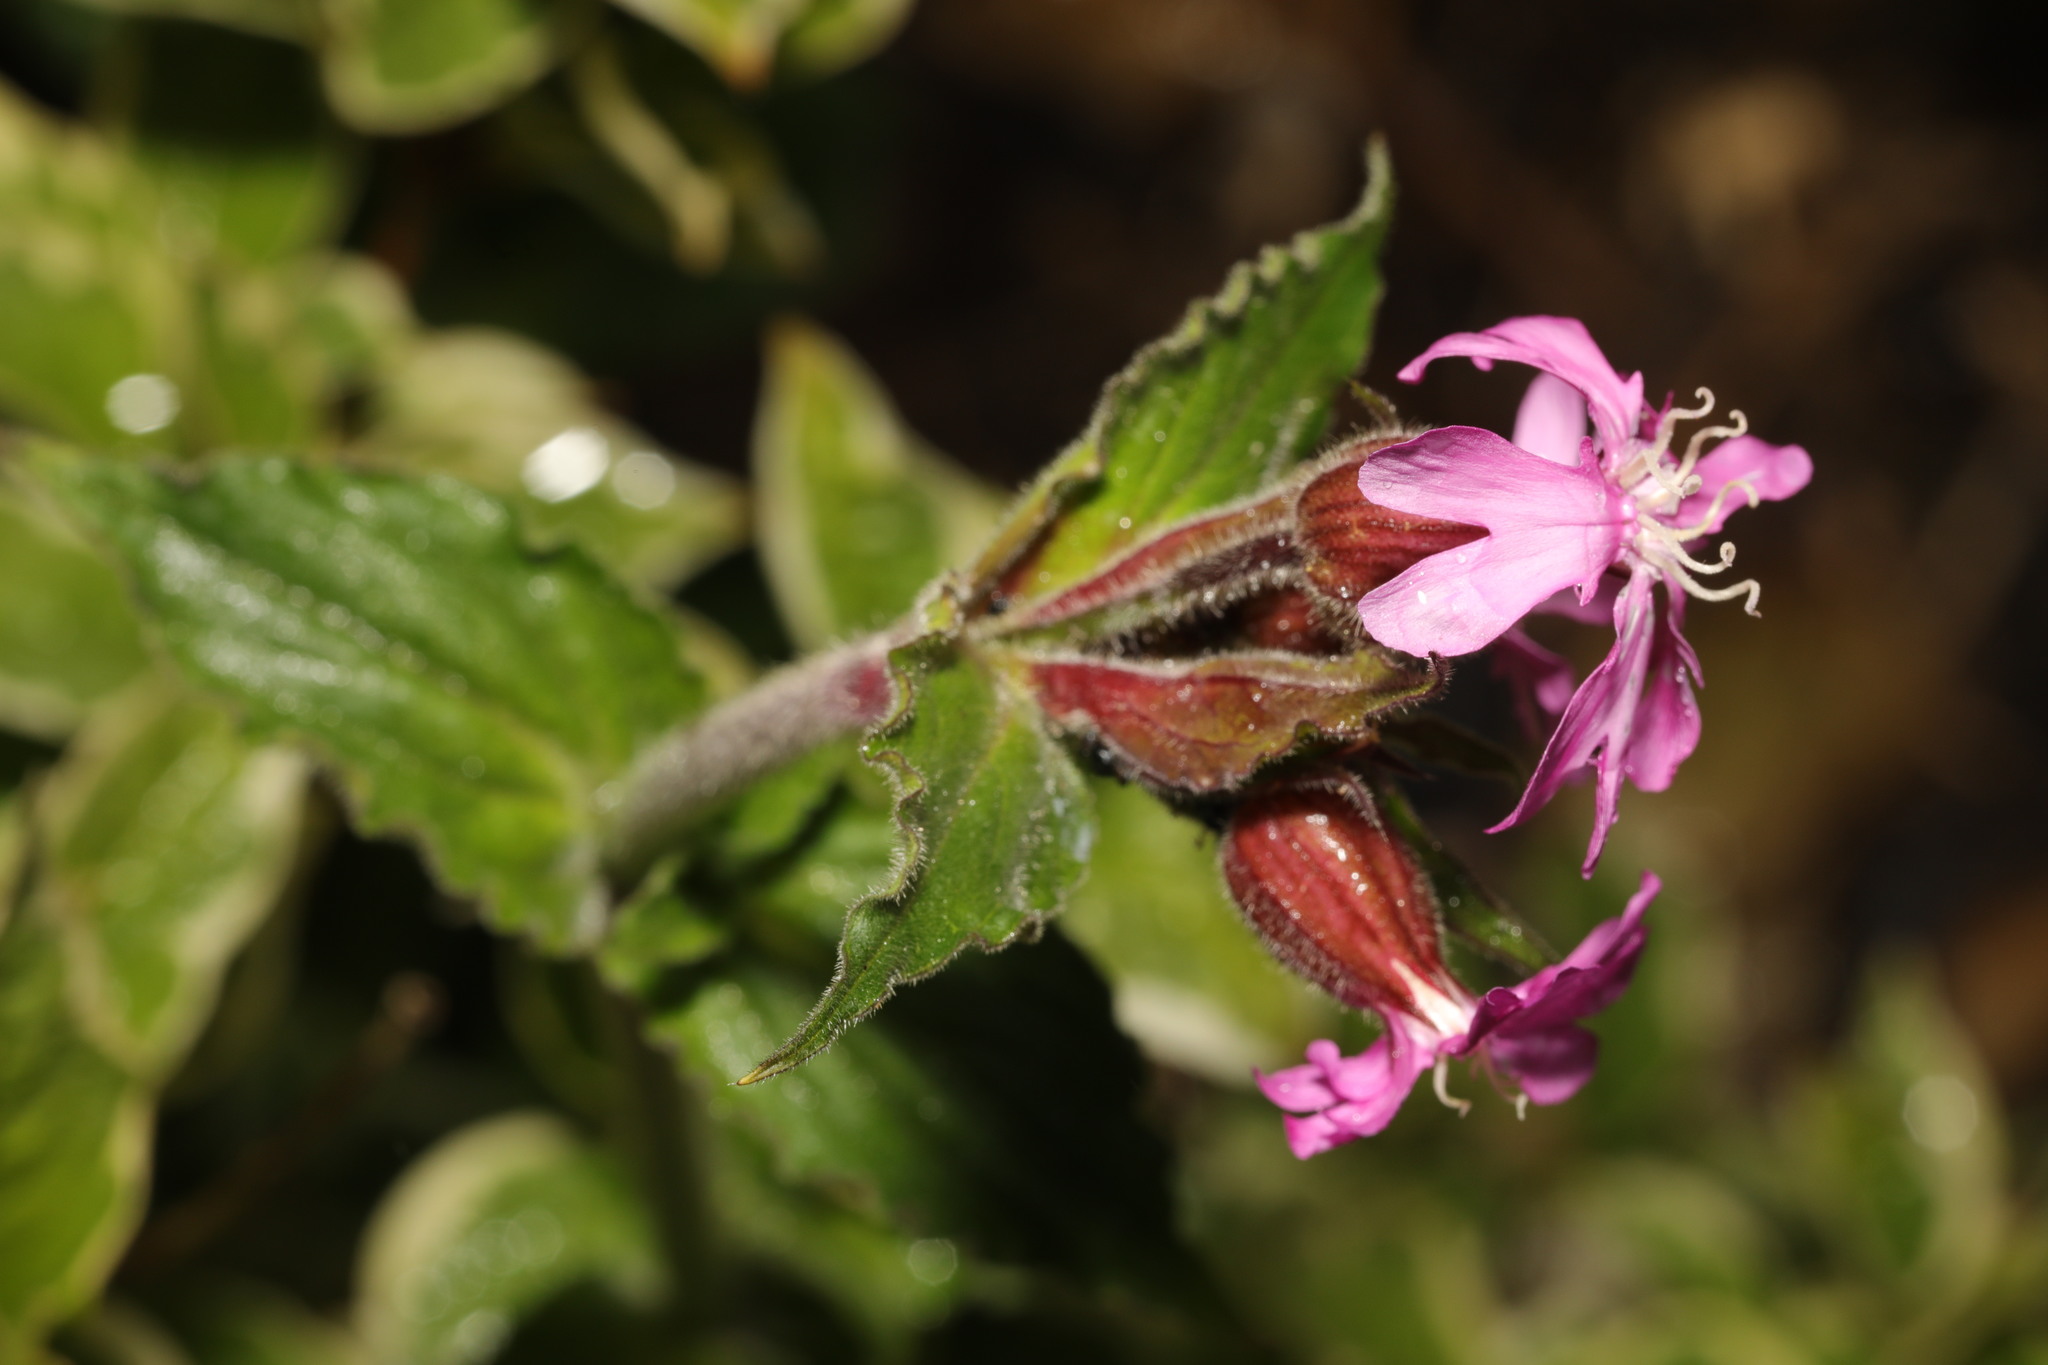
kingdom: Plantae
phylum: Tracheophyta
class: Magnoliopsida
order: Caryophyllales
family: Caryophyllaceae
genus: Silene
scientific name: Silene dioica
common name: Red campion
